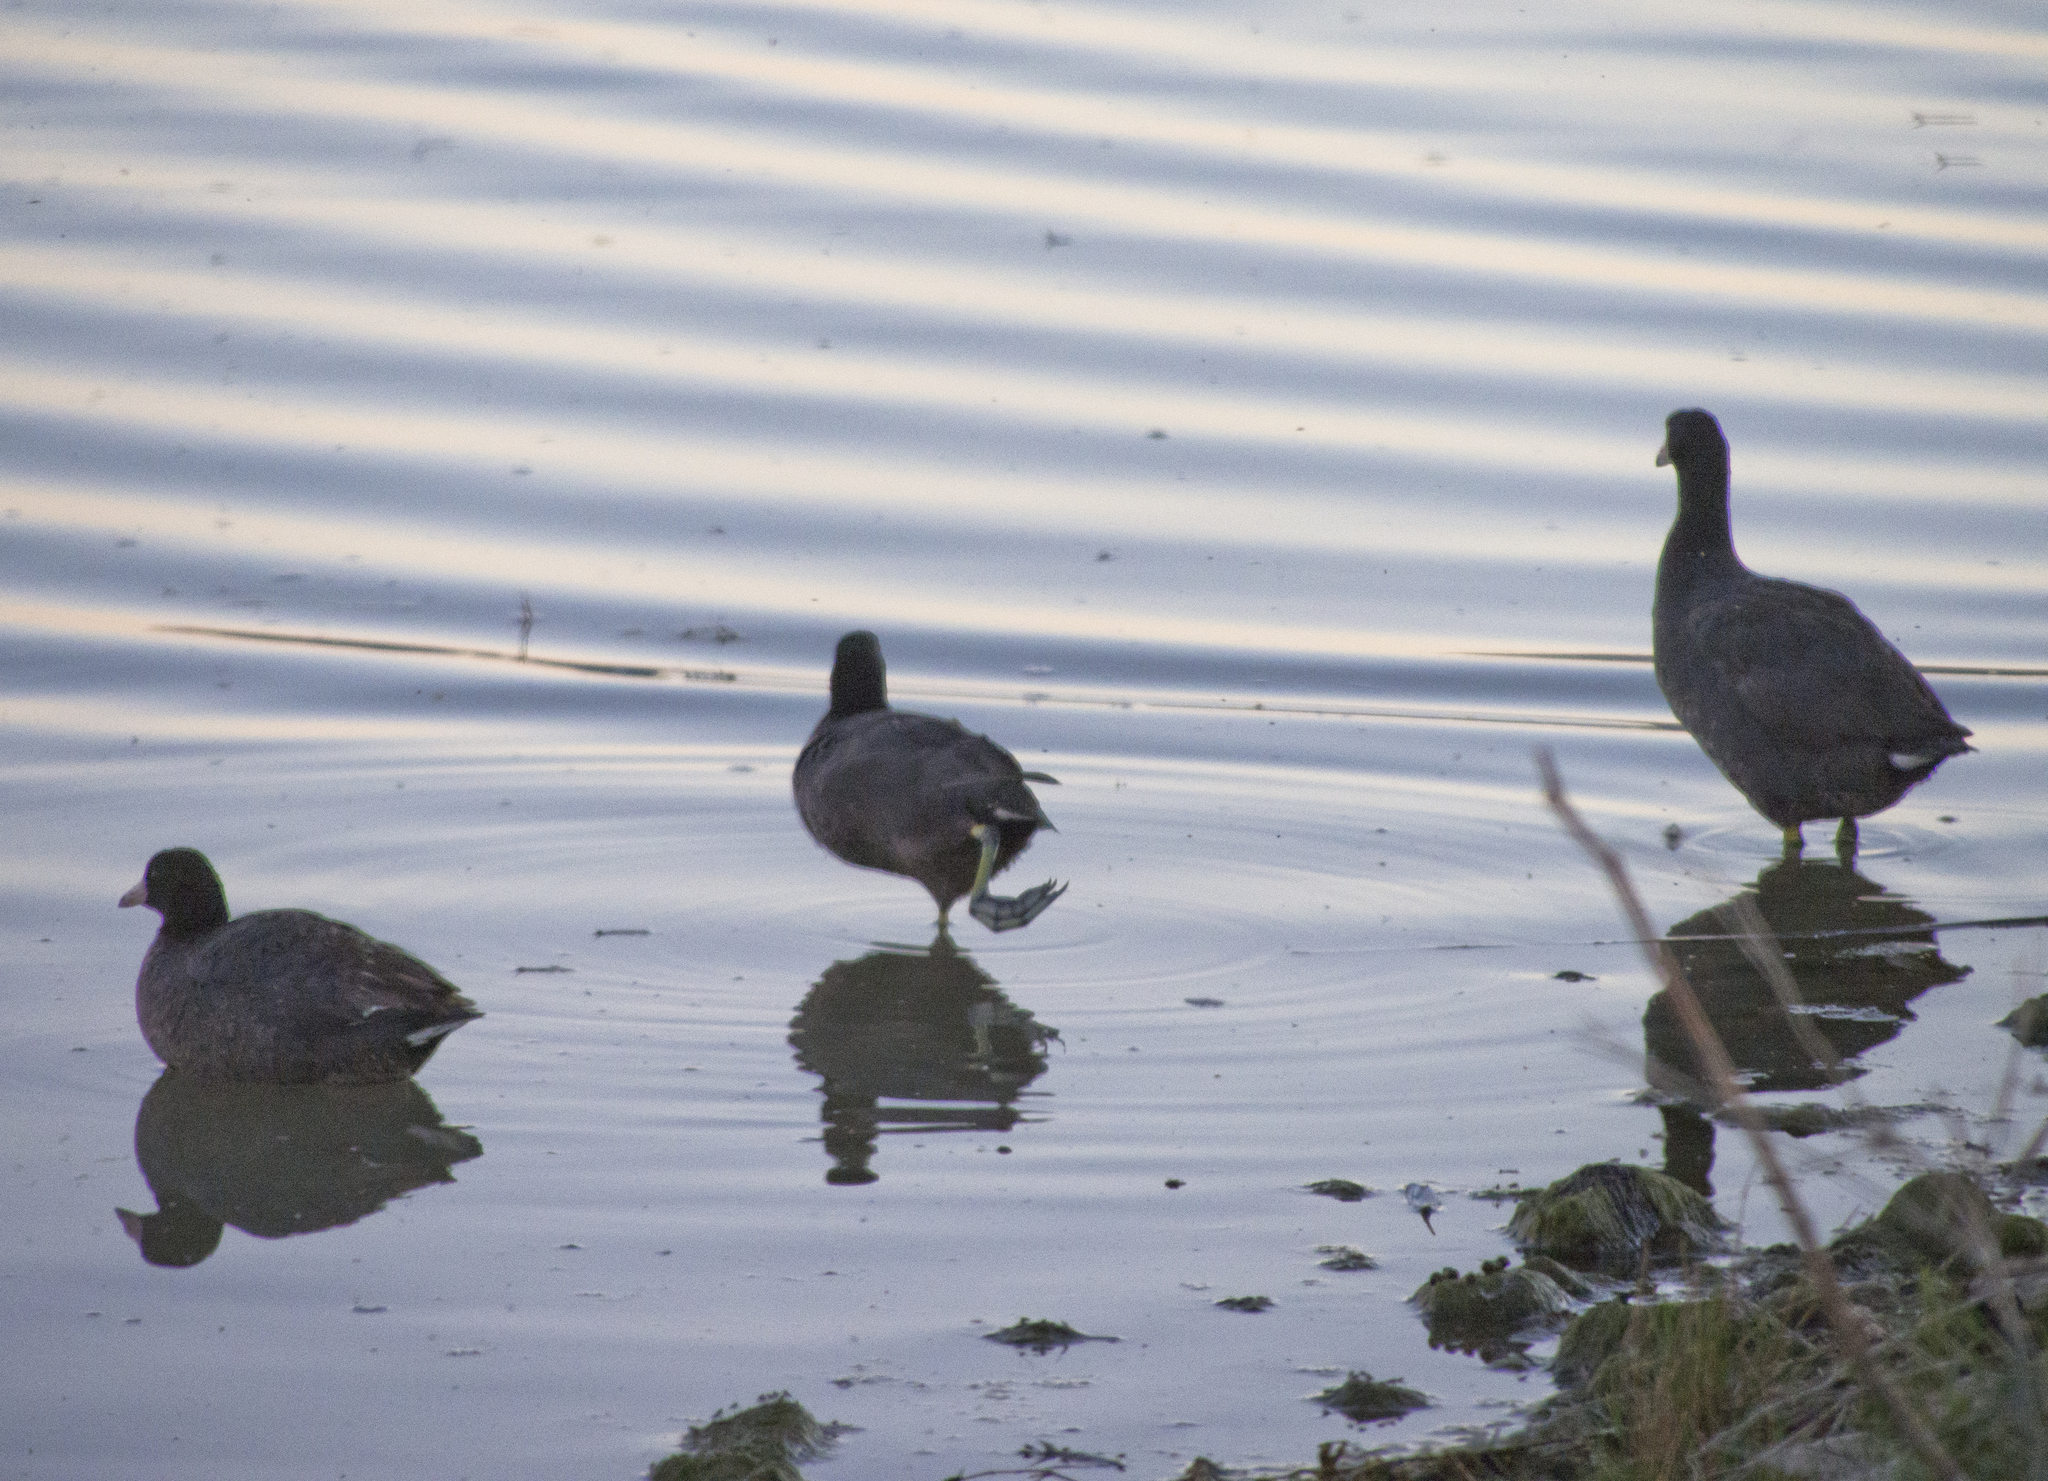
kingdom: Animalia
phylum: Chordata
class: Aves
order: Gruiformes
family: Rallidae
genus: Fulica
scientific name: Fulica americana
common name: American coot
